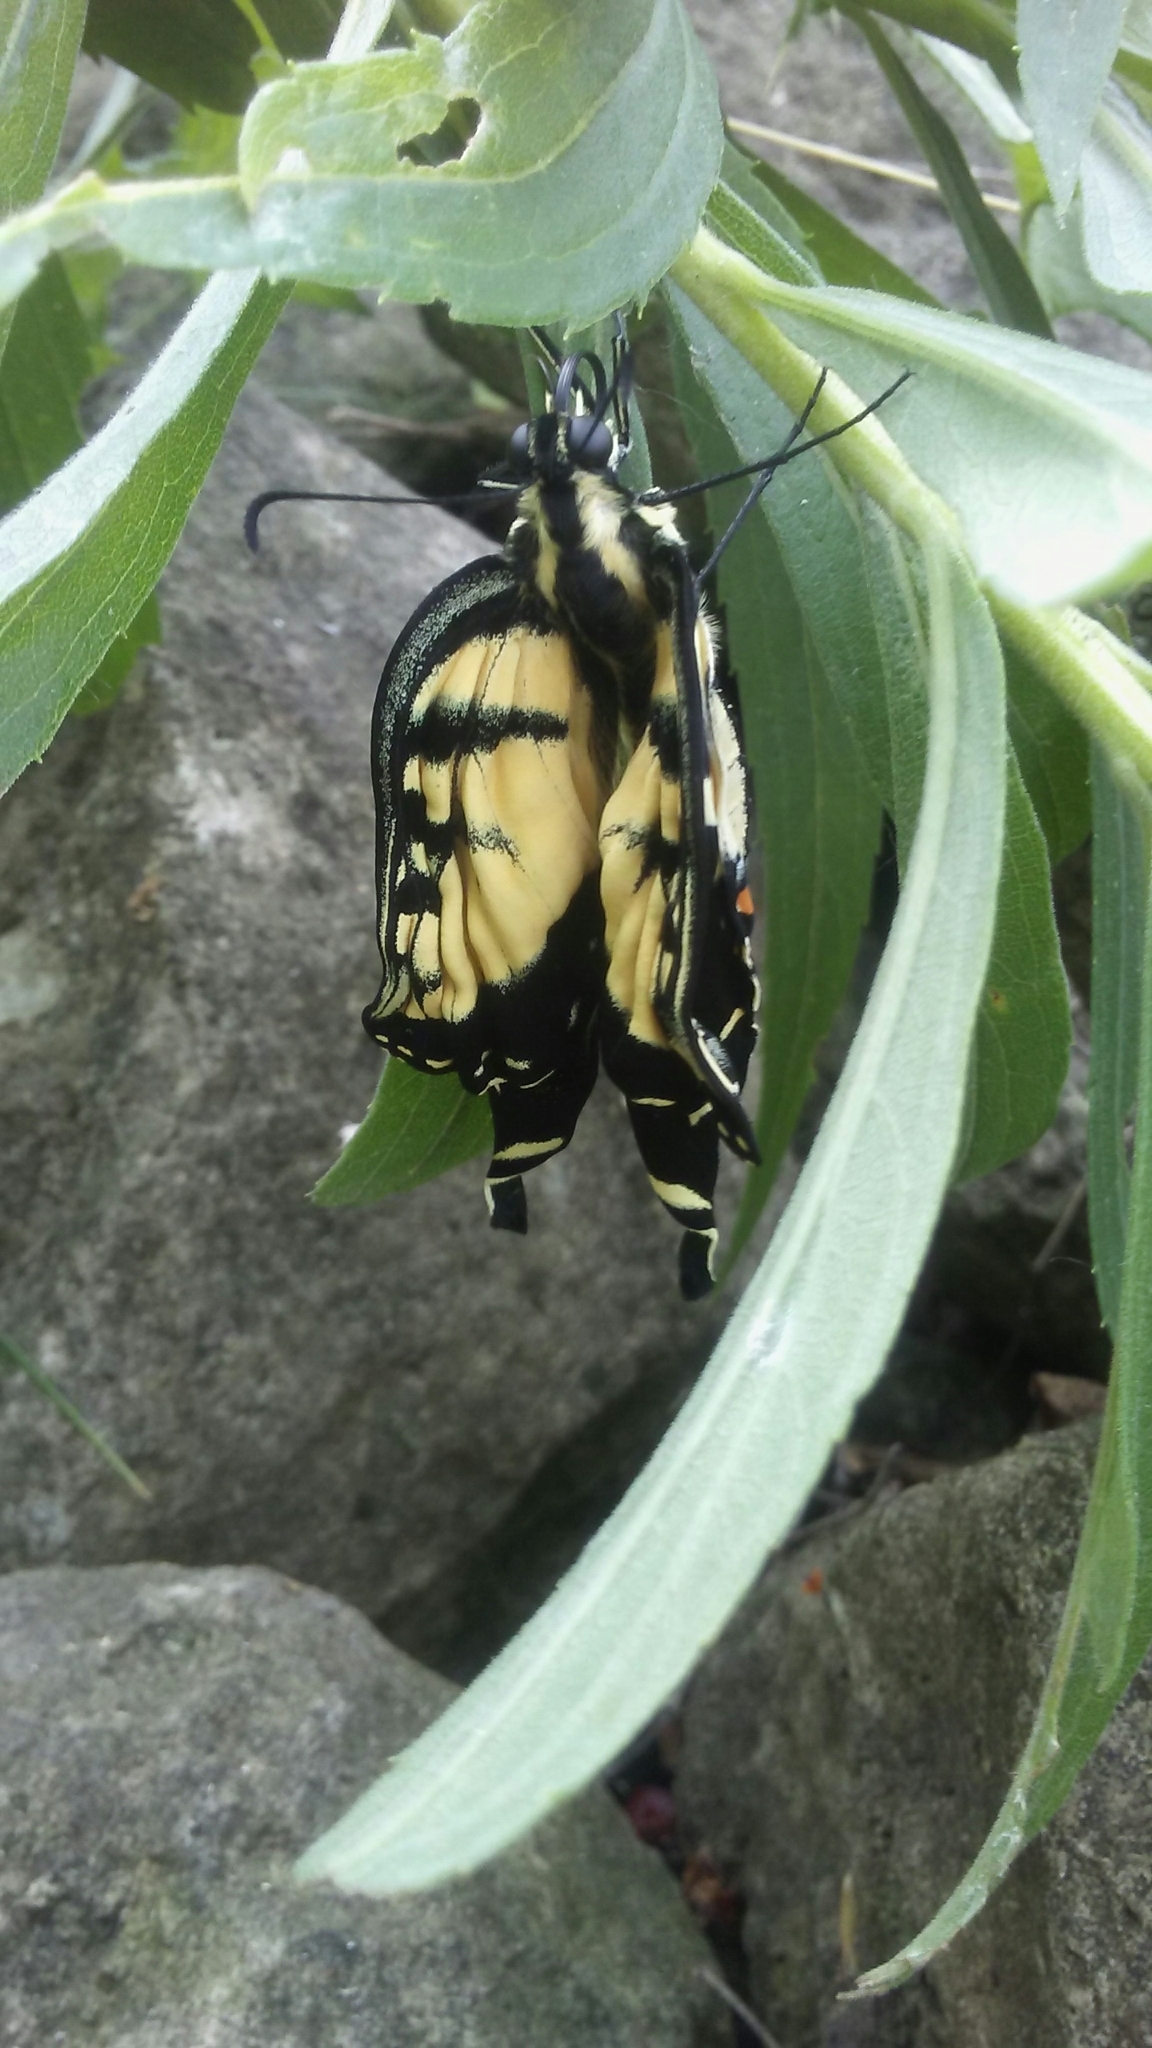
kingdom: Animalia
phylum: Arthropoda
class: Insecta
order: Lepidoptera
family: Papilionidae
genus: Papilio
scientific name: Papilio glaucus
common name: Tiger swallowtail
